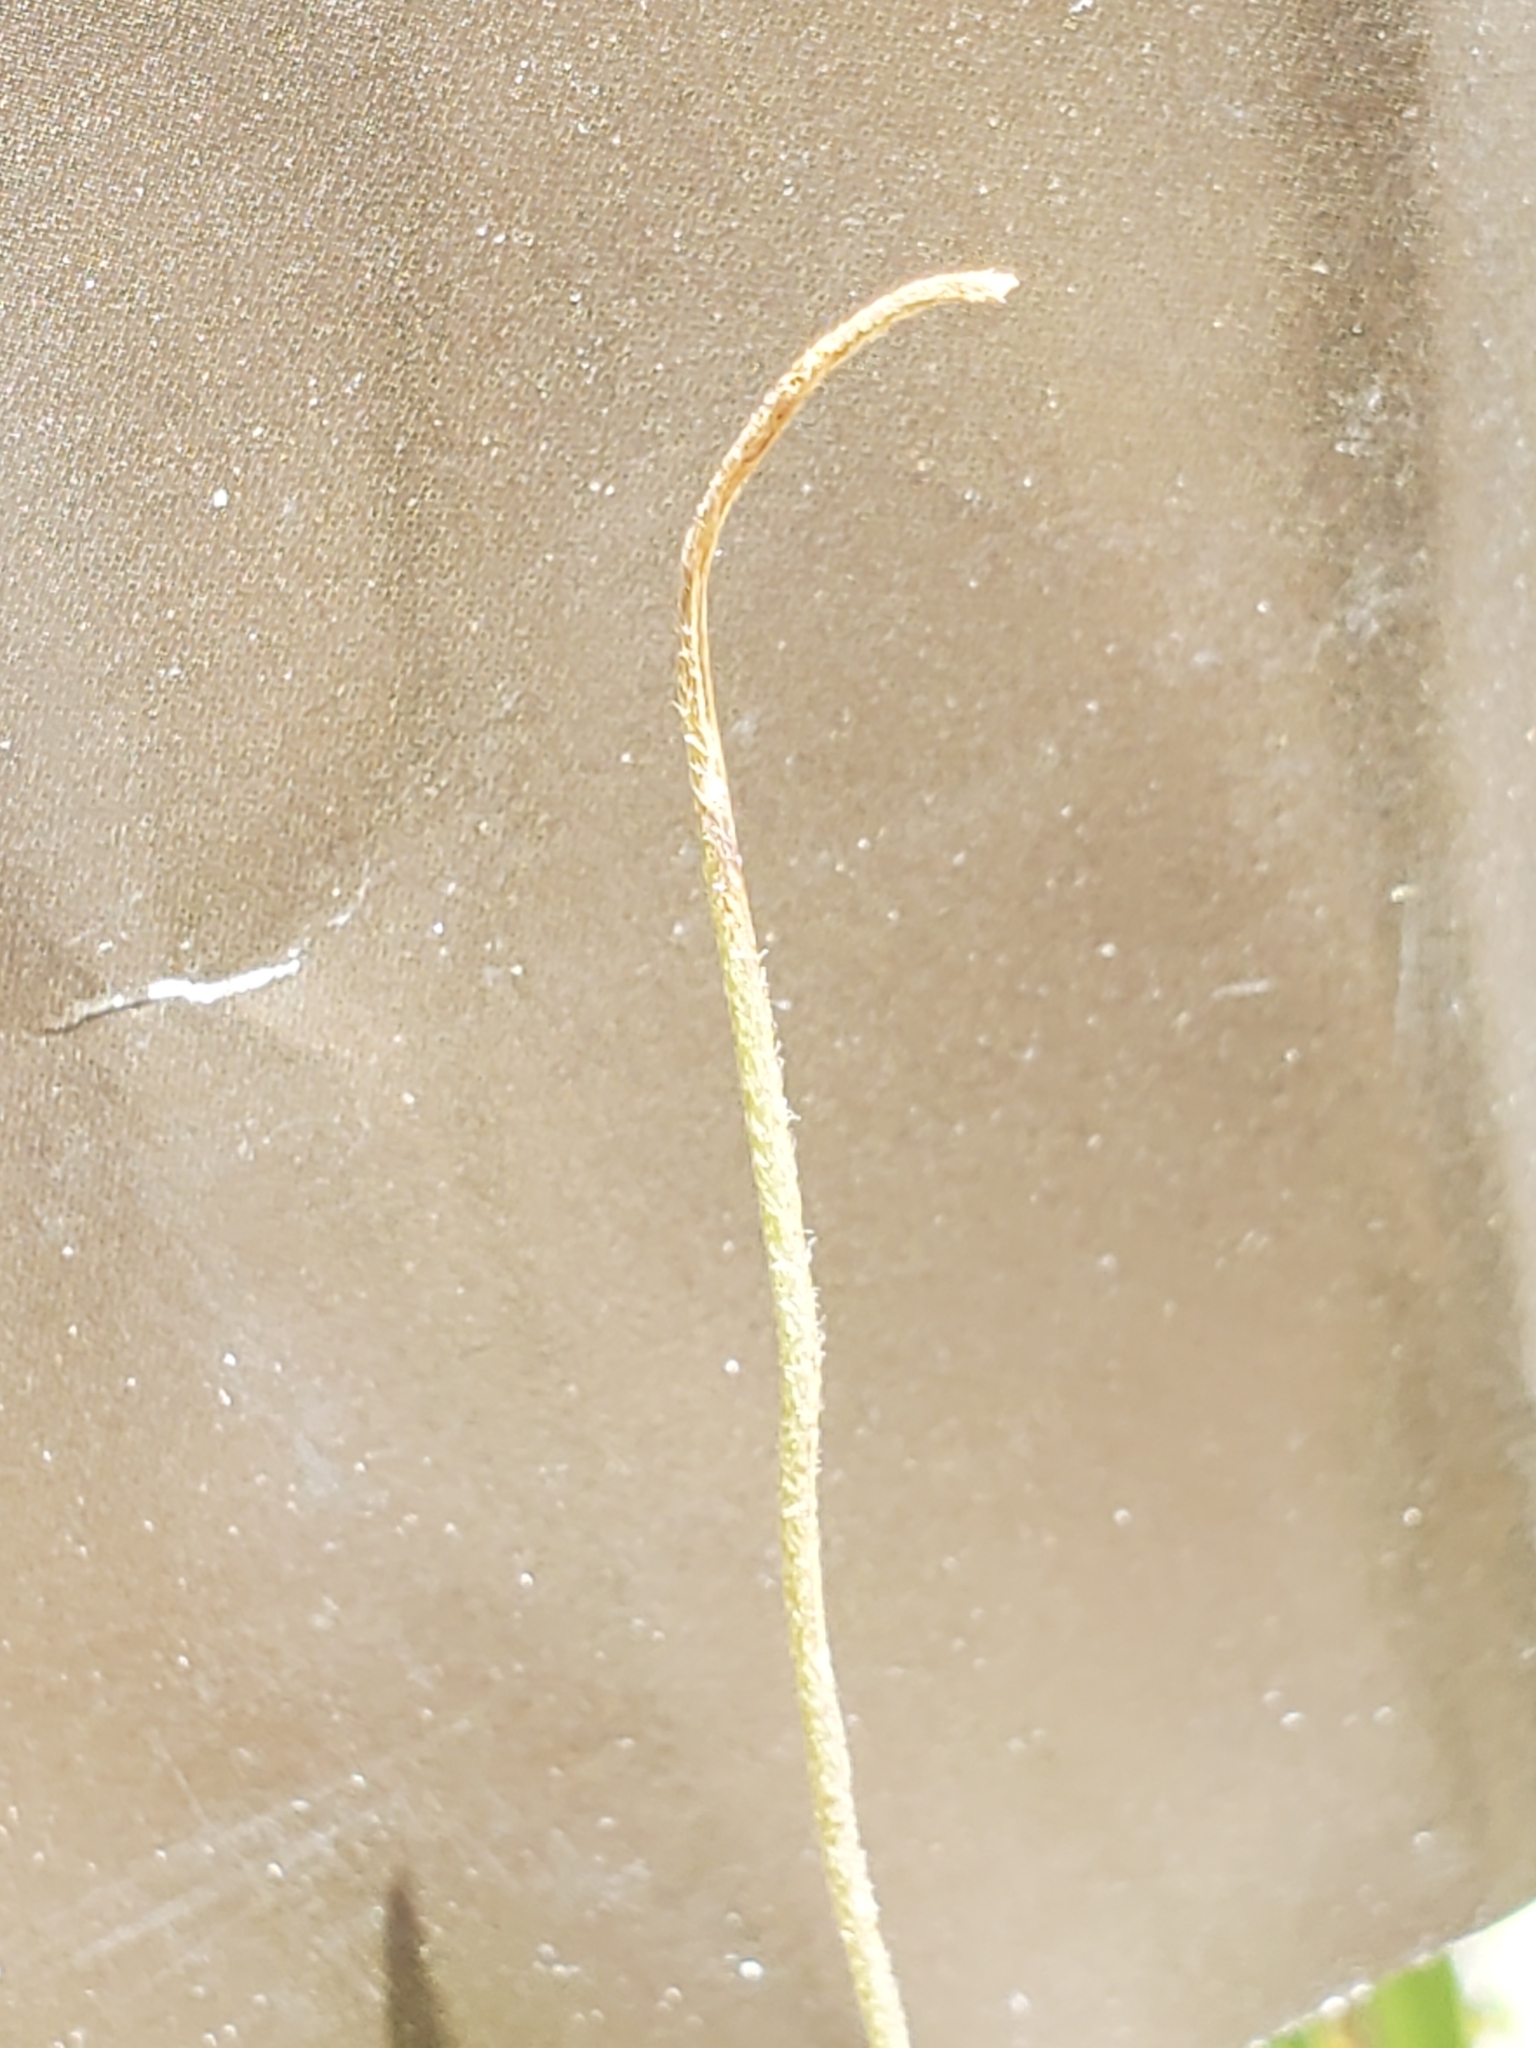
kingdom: Plantae
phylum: Tracheophyta
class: Magnoliopsida
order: Ranunculales
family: Ranunculaceae
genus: Anemone
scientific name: Anemone edwardsiana
